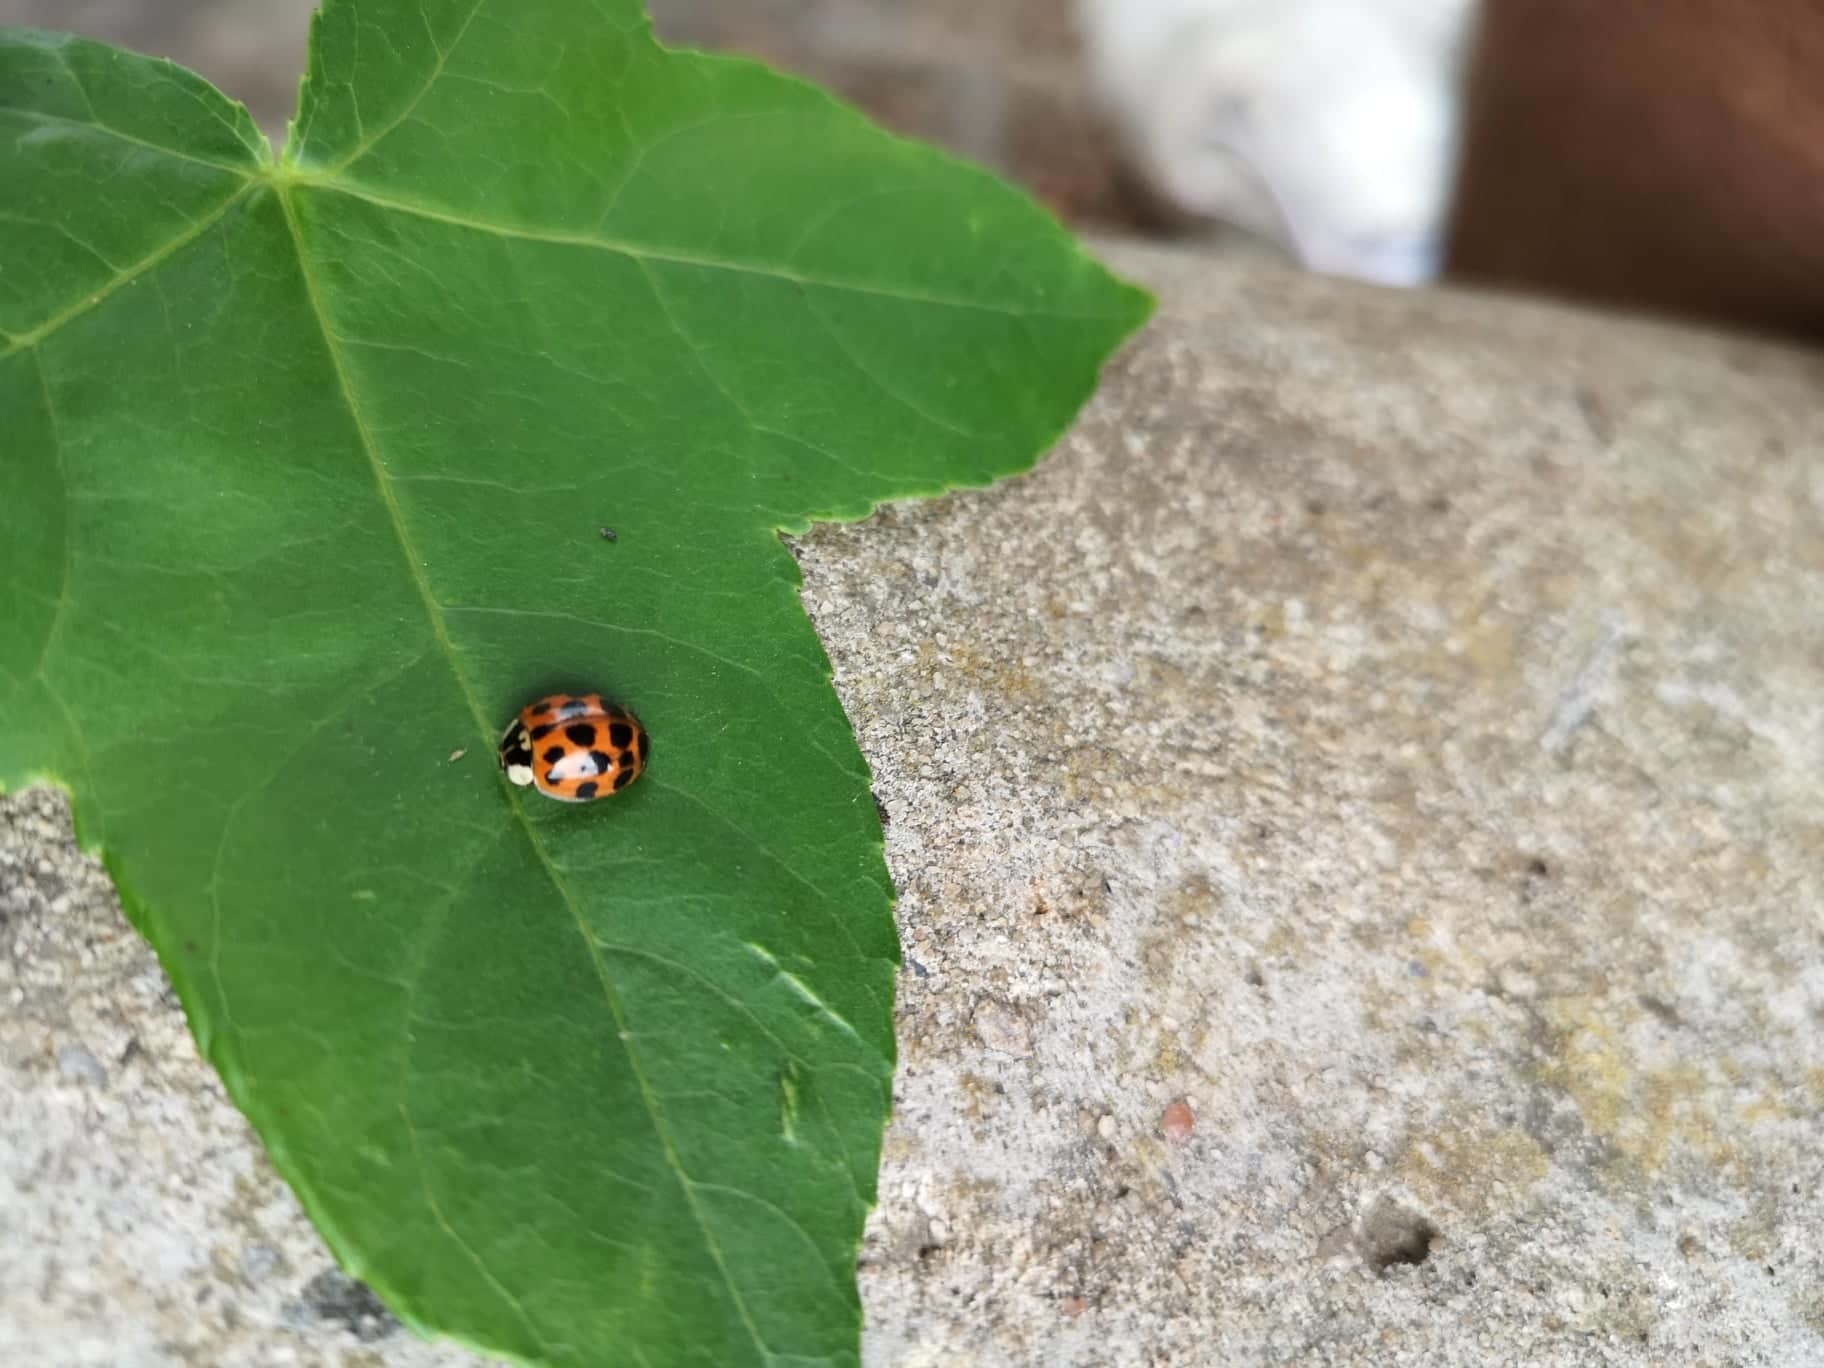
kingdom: Animalia
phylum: Arthropoda
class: Insecta
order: Coleoptera
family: Coccinellidae
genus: Harmonia
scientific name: Harmonia axyridis
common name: Harlequin ladybird
